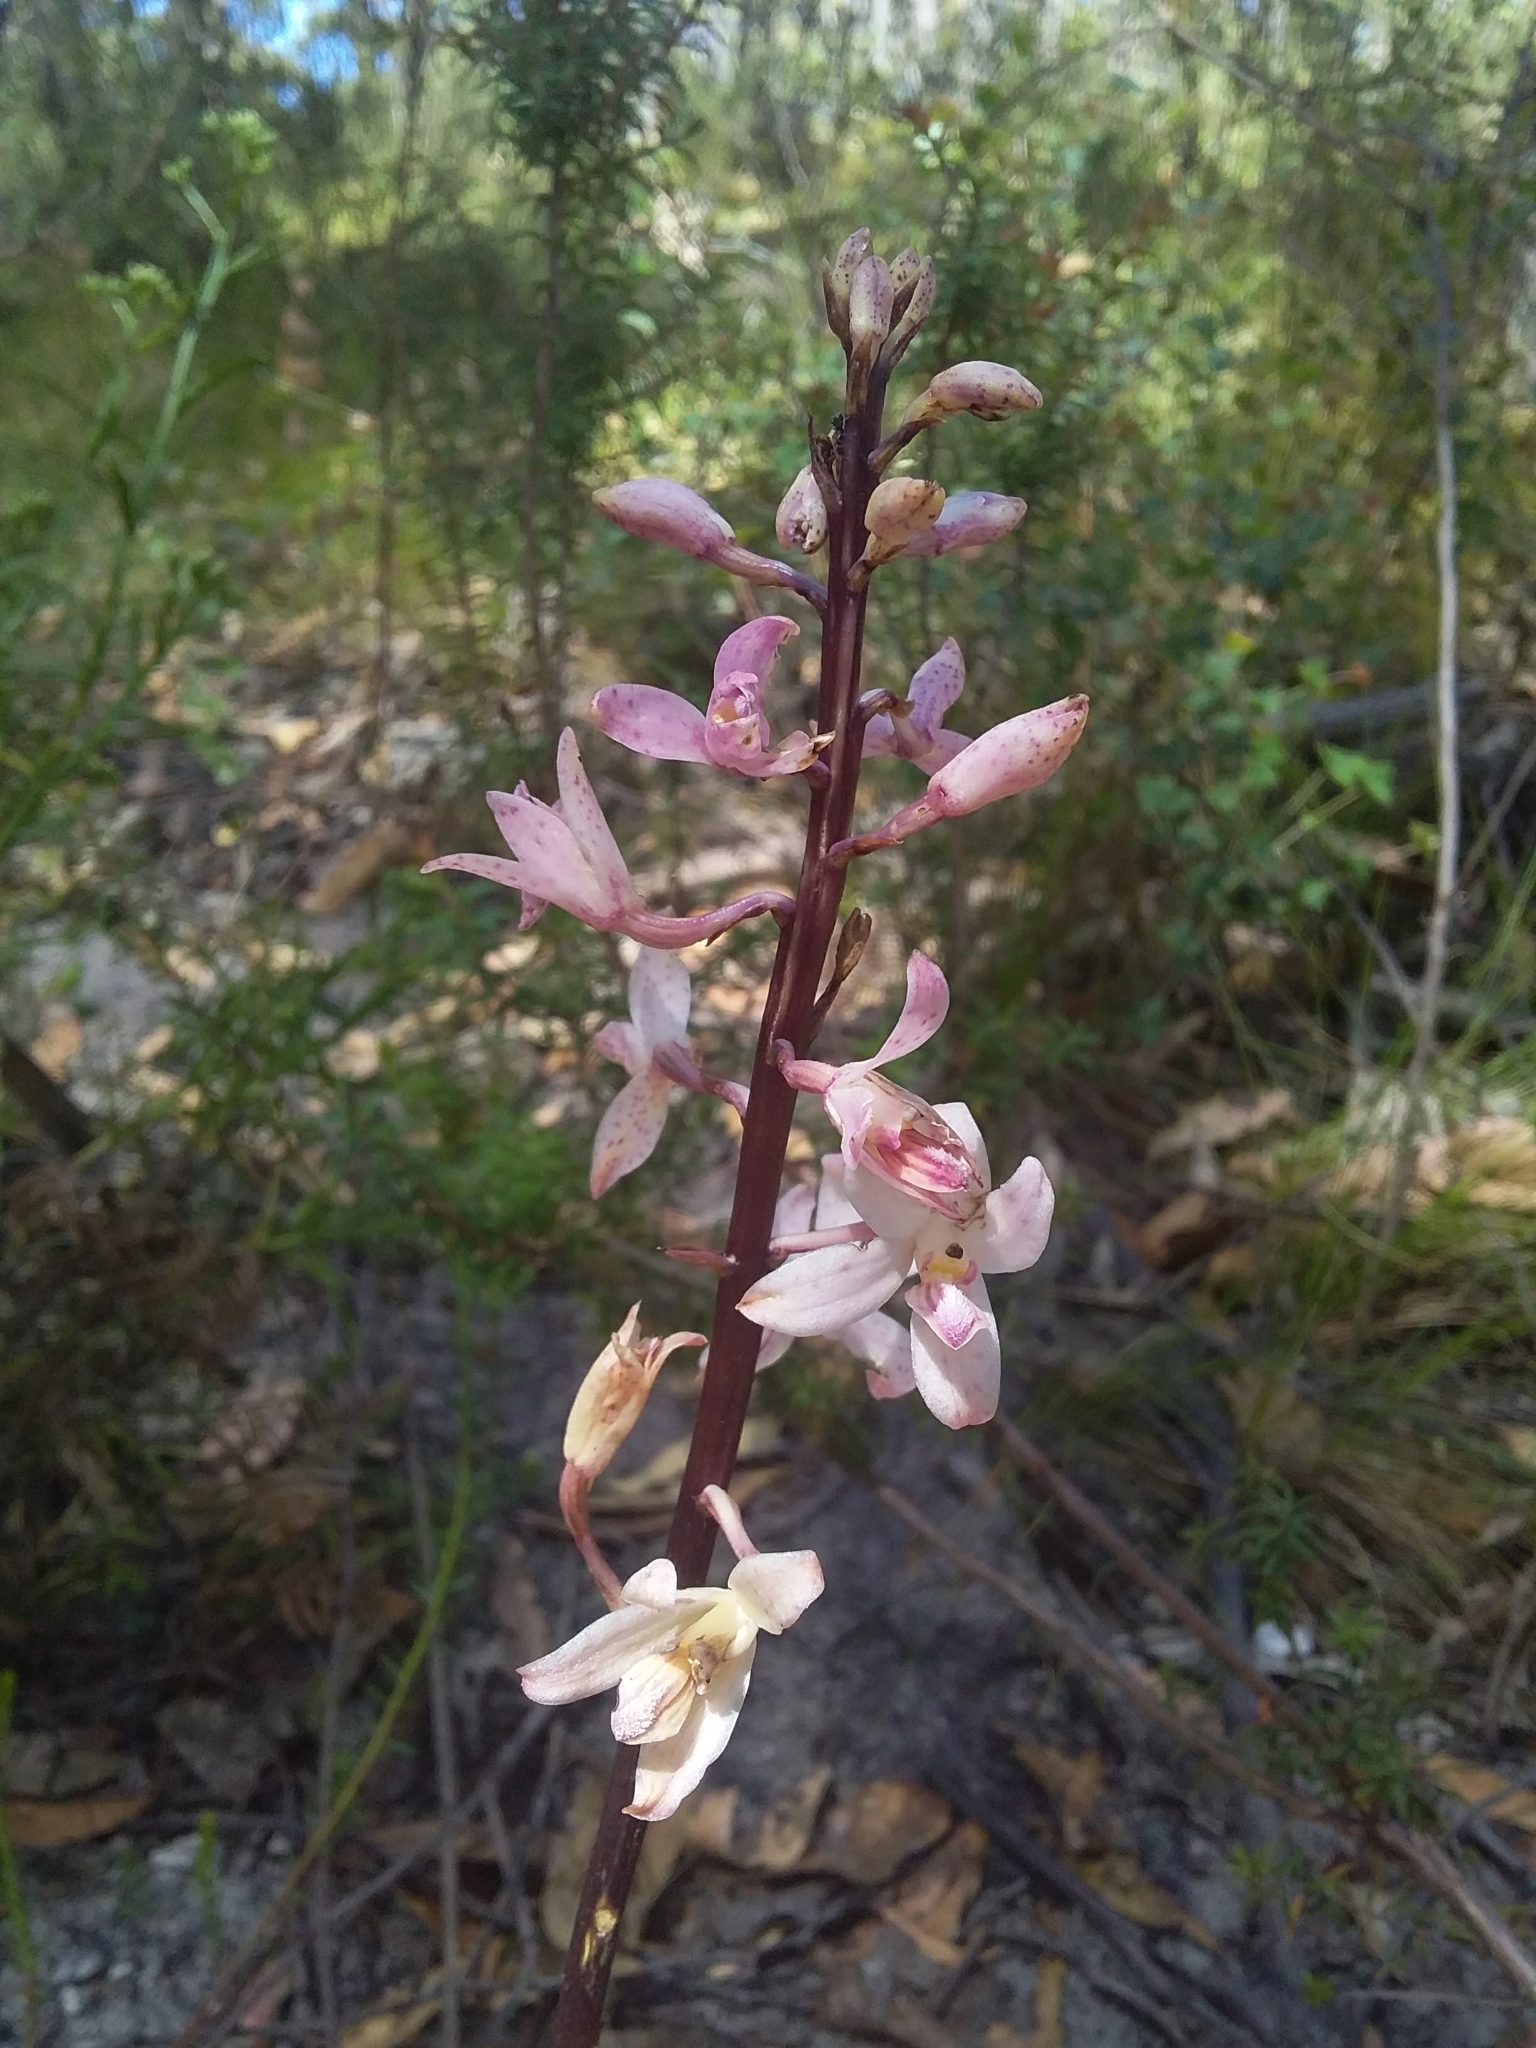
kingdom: Plantae
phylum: Tracheophyta
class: Liliopsida
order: Asparagales
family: Orchidaceae
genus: Dipodium
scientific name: Dipodium roseum
